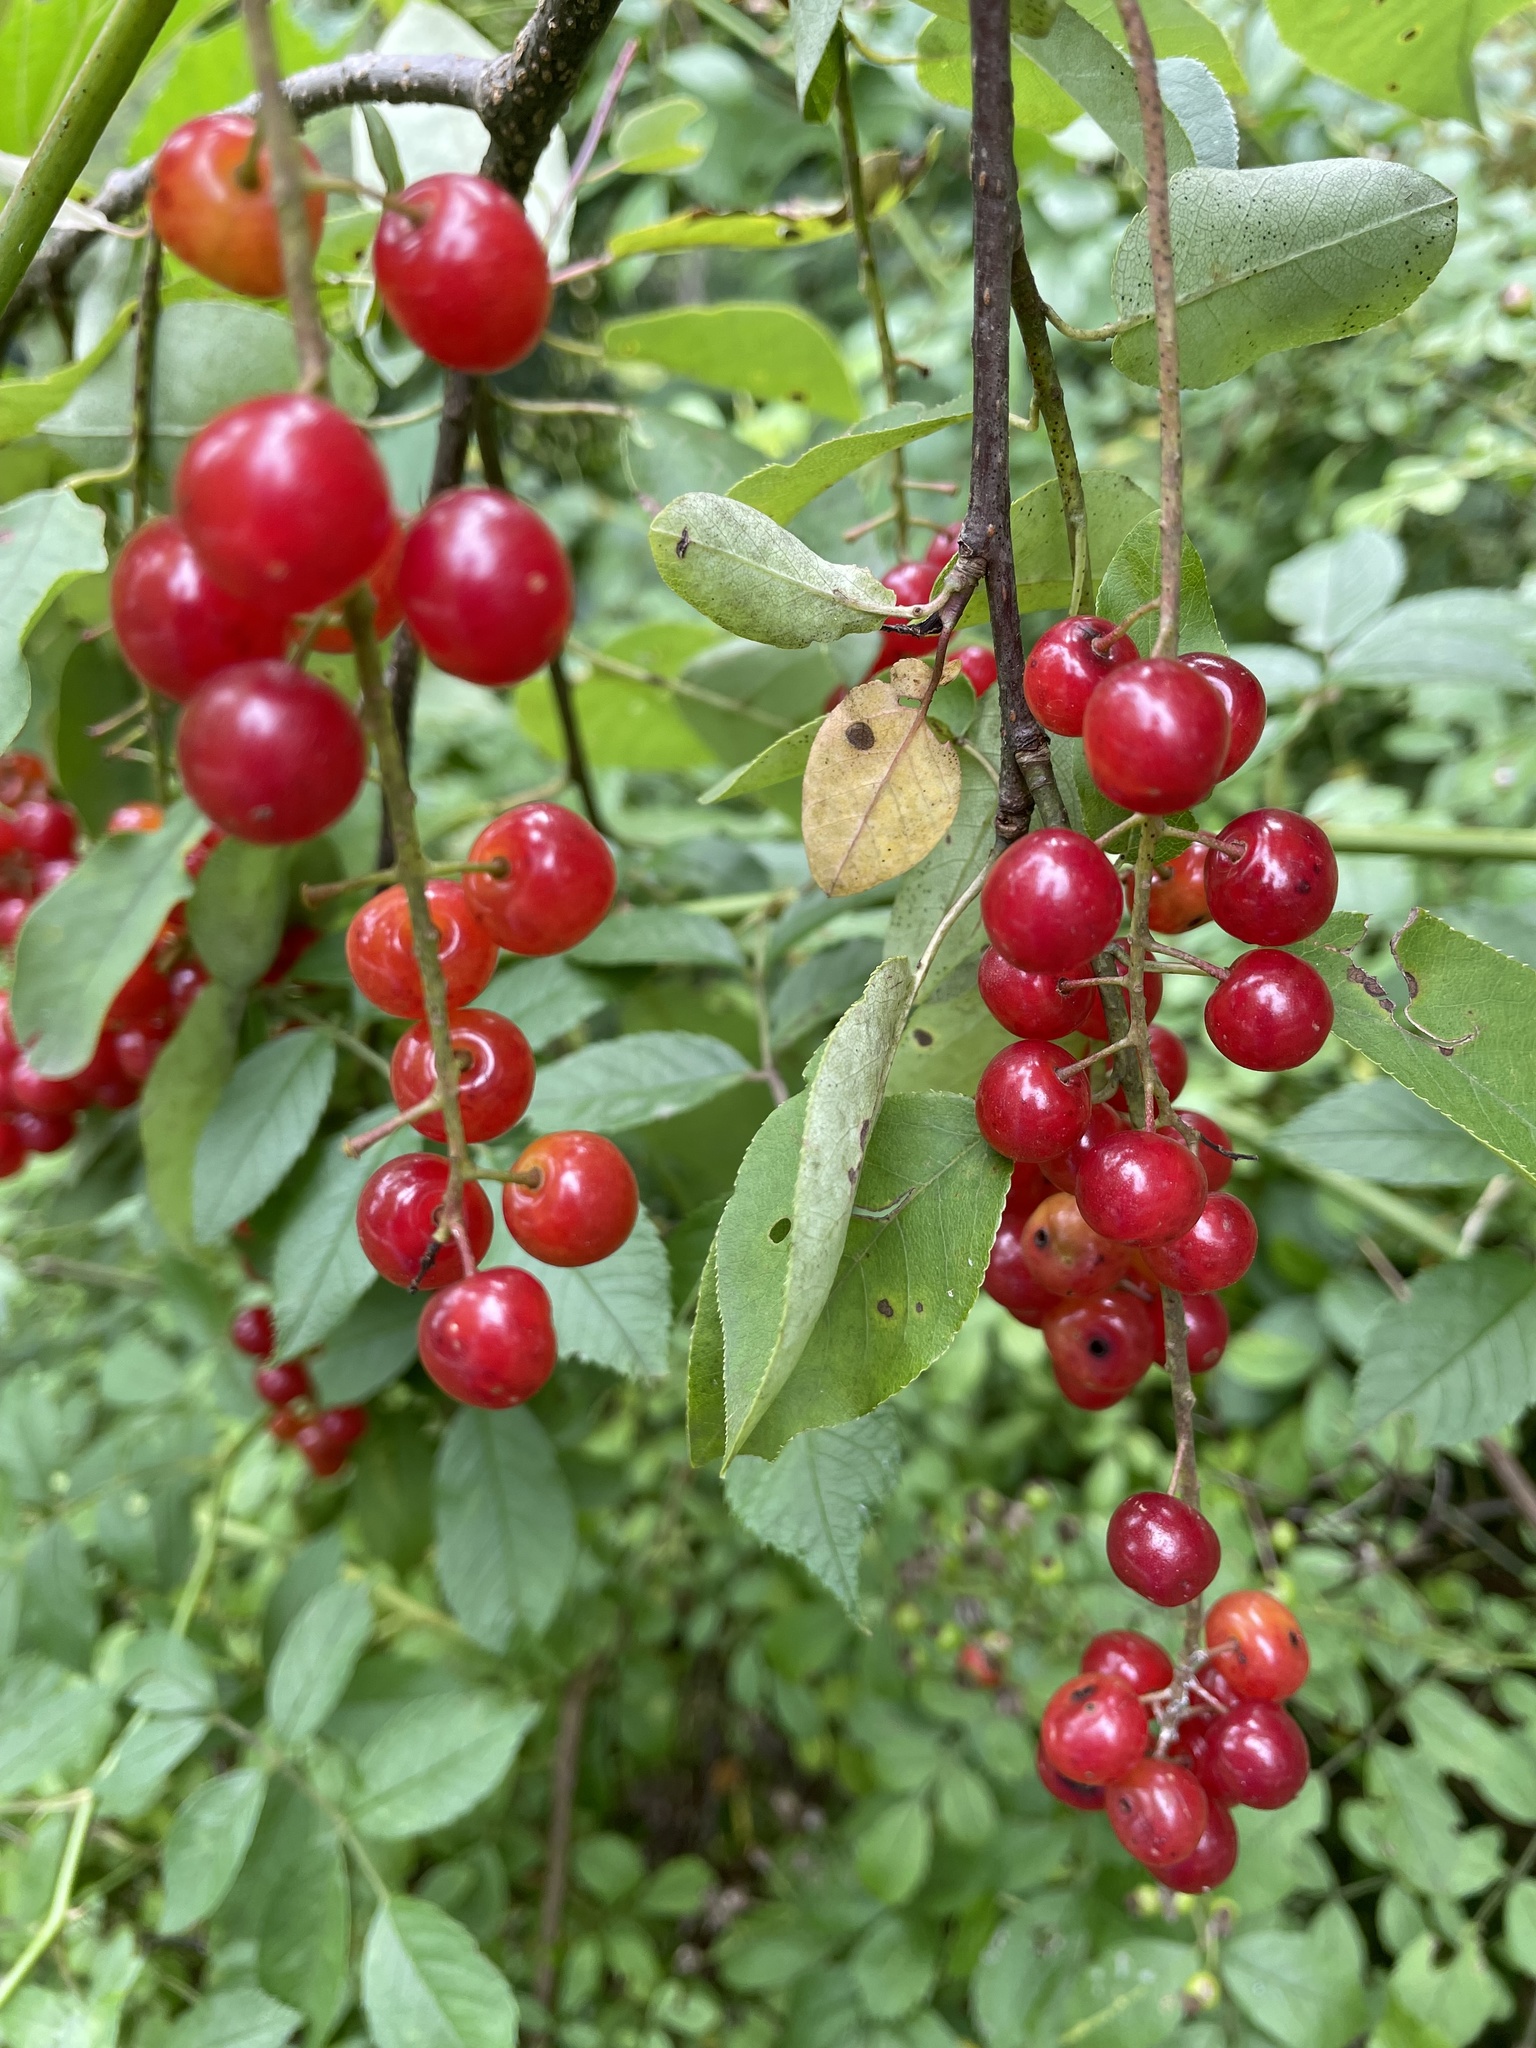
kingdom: Plantae
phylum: Tracheophyta
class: Magnoliopsida
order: Rosales
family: Rosaceae
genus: Prunus
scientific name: Prunus virginiana
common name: Chokecherry
